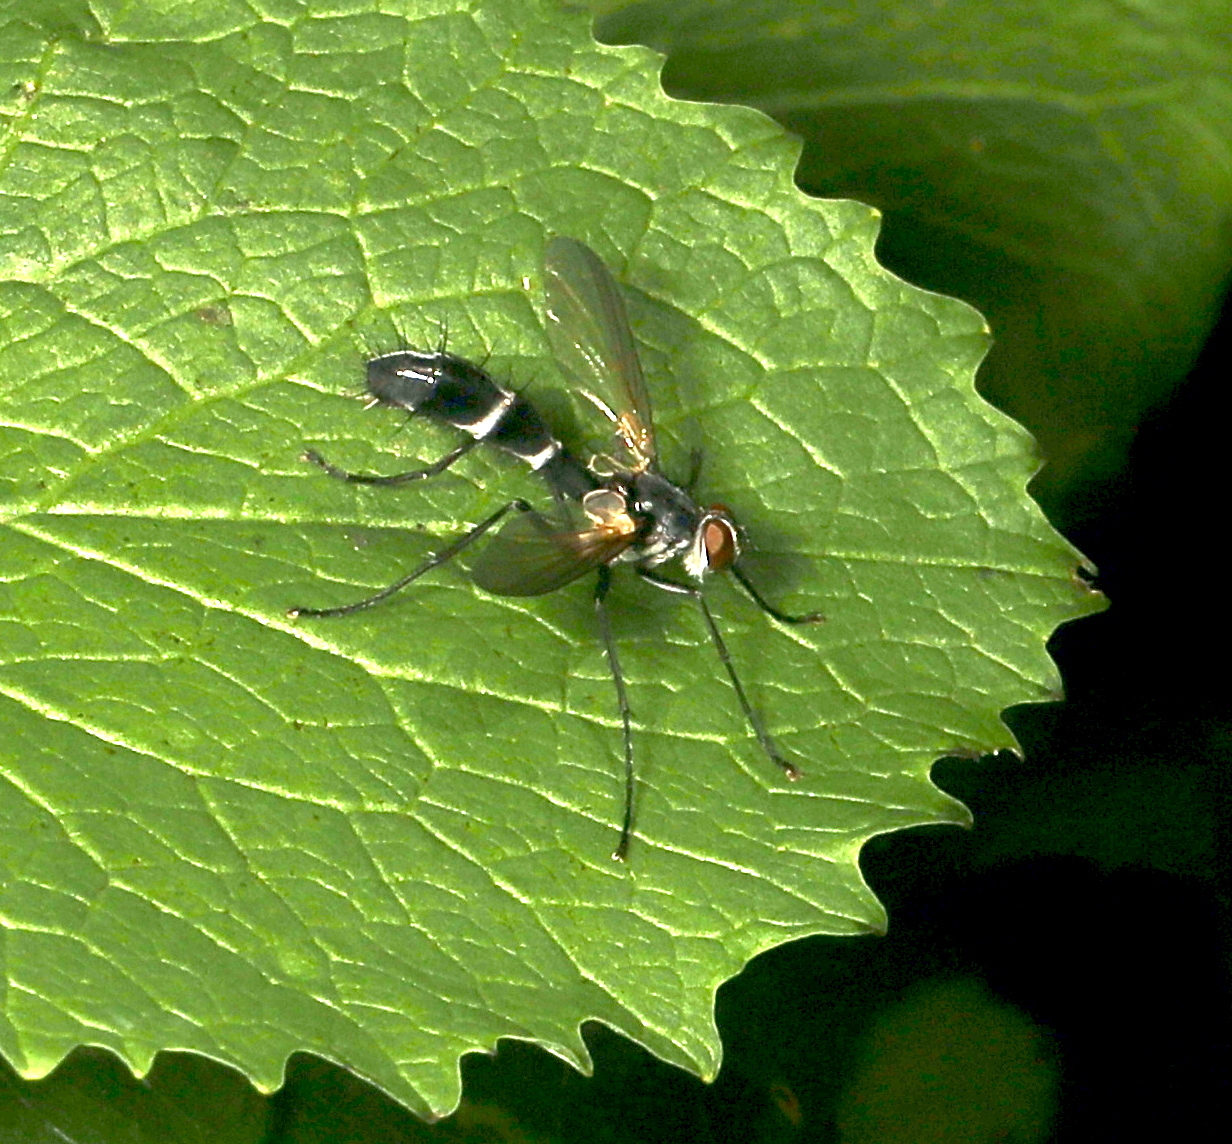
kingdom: Animalia
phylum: Arthropoda
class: Insecta
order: Diptera
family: Tachinidae
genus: Cordyligaster
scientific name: Cordyligaster septentrionalis
